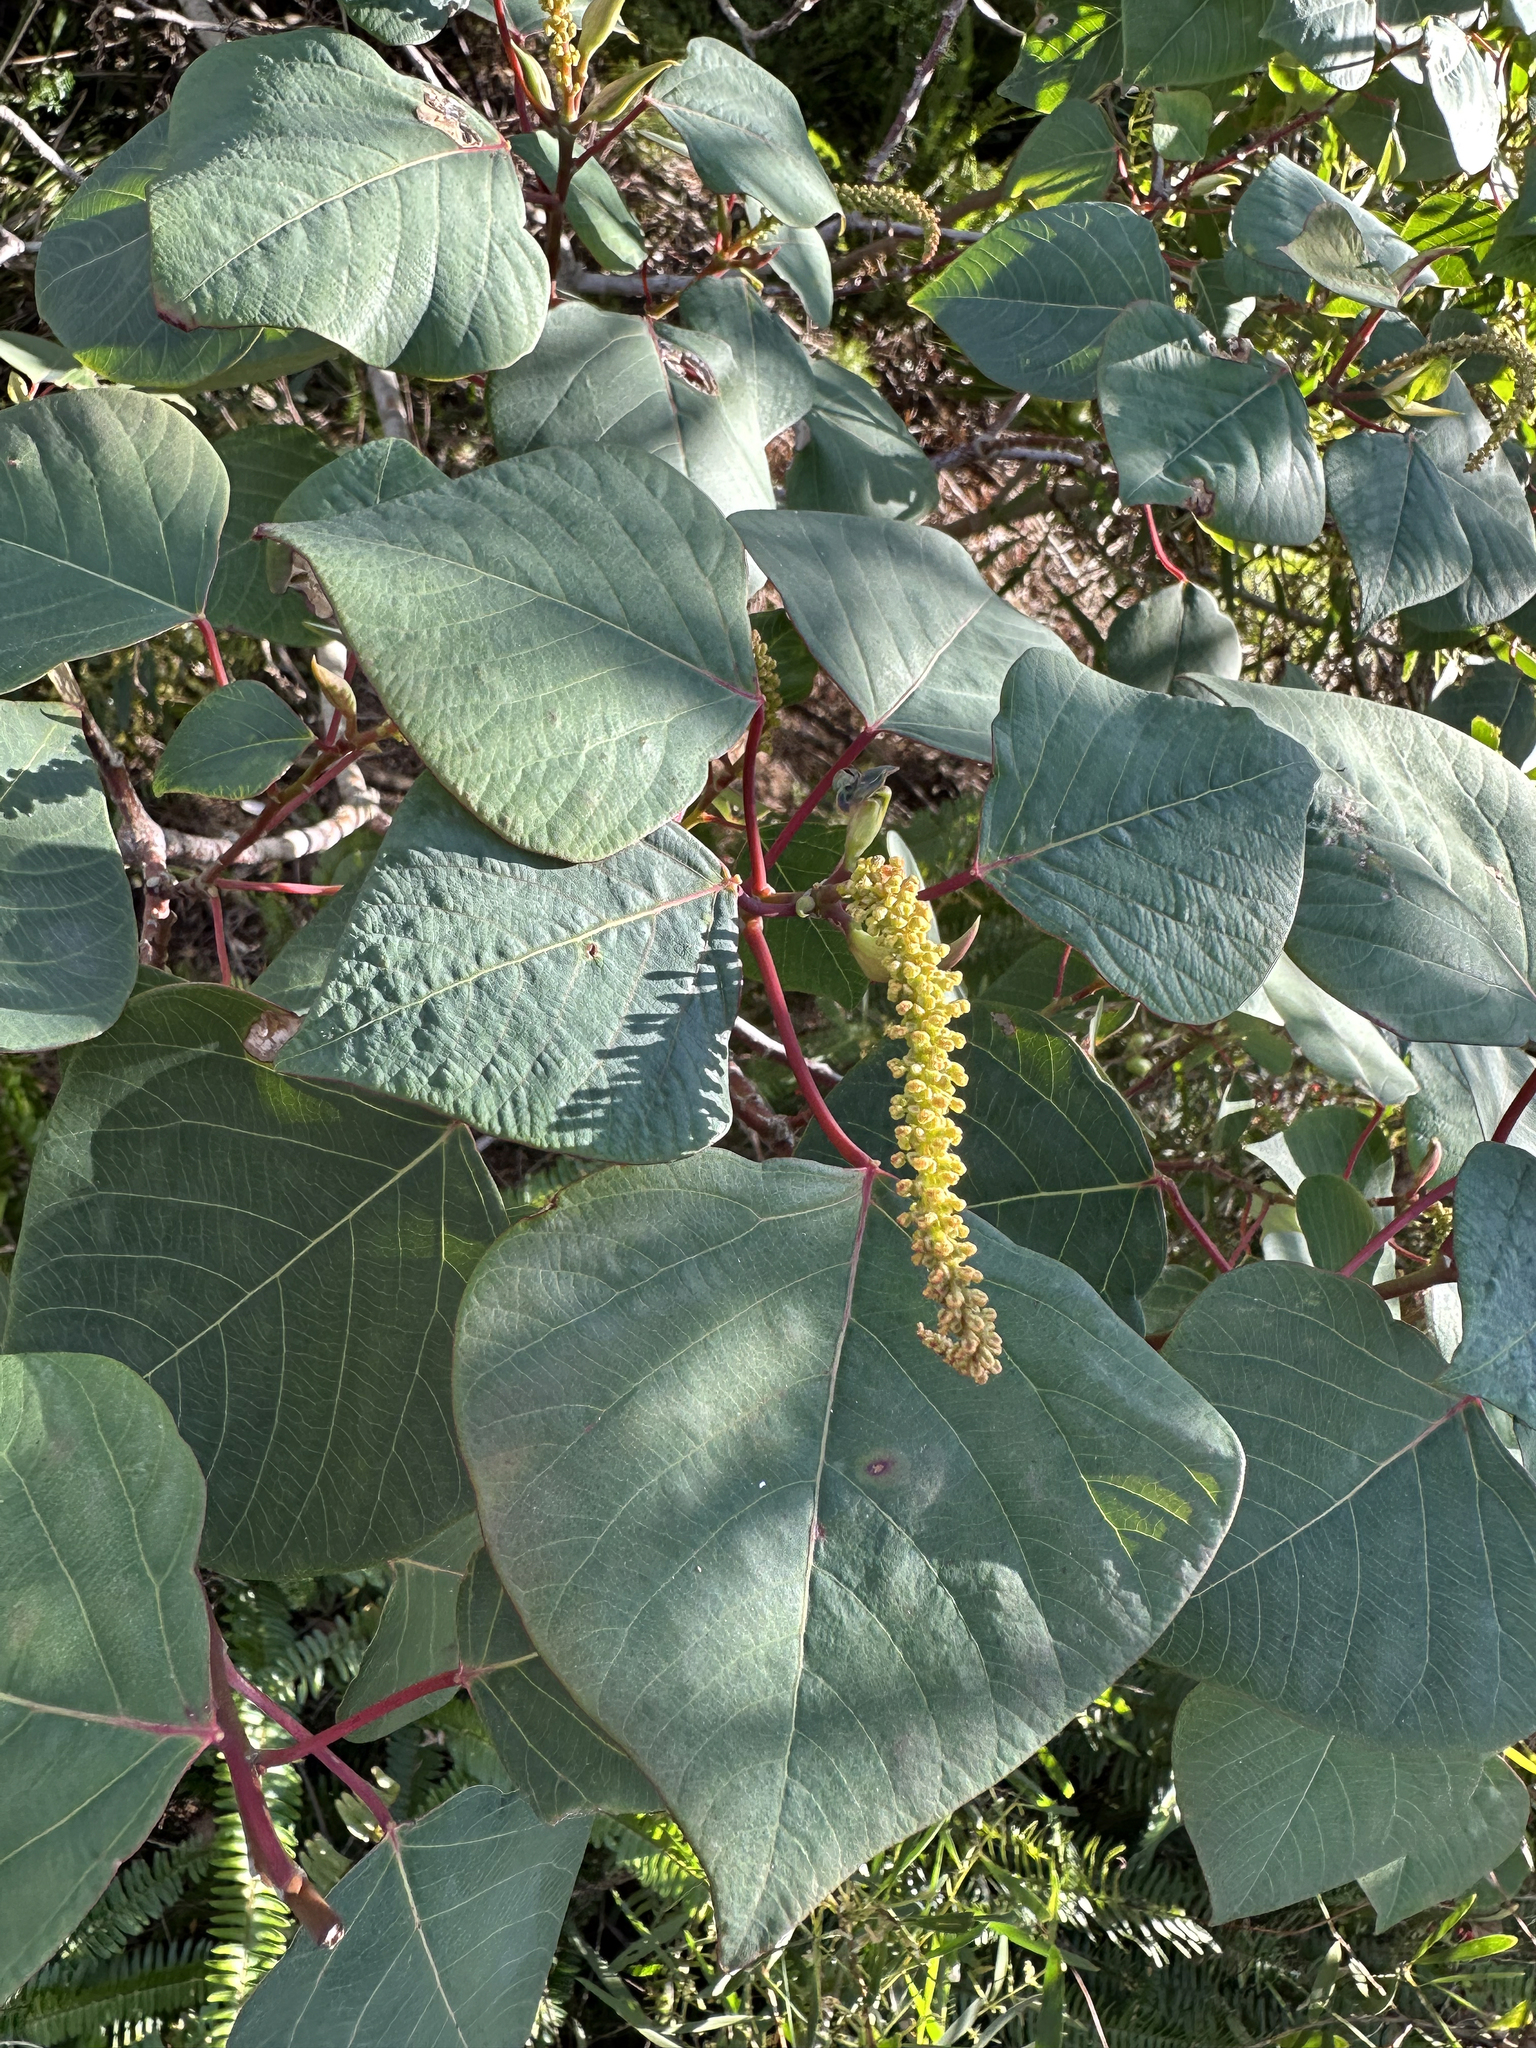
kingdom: Plantae
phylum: Tracheophyta
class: Magnoliopsida
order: Malpighiales
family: Euphorbiaceae
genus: Homalanthus
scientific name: Homalanthus populifolius
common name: Queensland poplar
